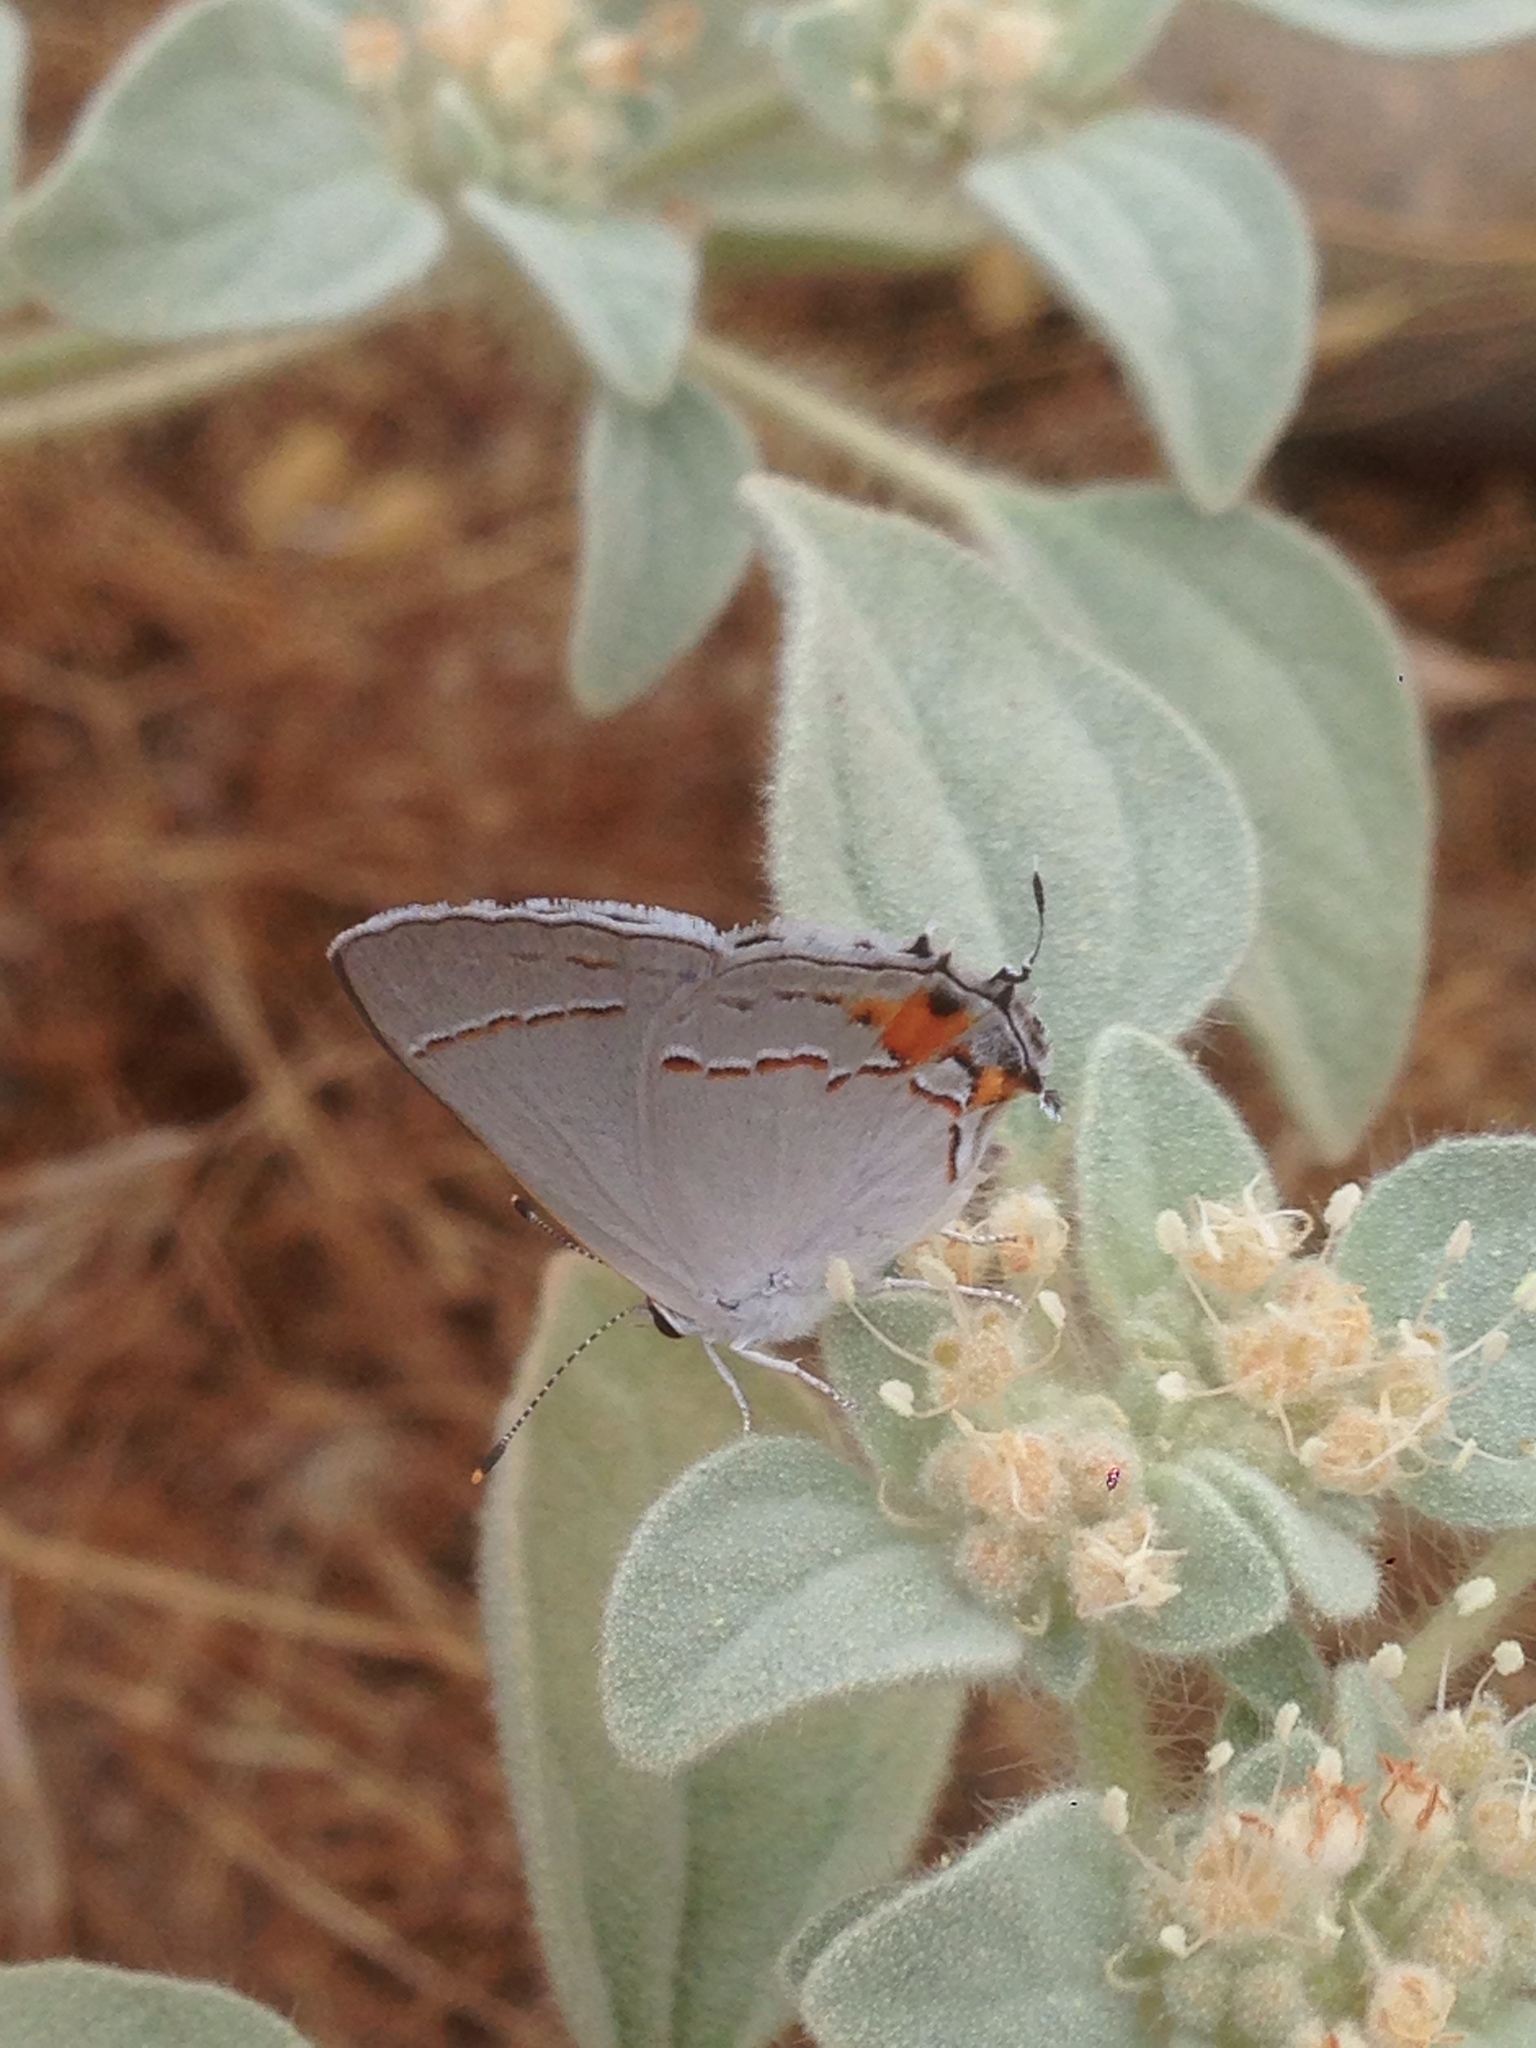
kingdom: Animalia
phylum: Arthropoda
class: Insecta
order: Lepidoptera
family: Lycaenidae
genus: Strymon
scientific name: Strymon melinus
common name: Gray hairstreak
